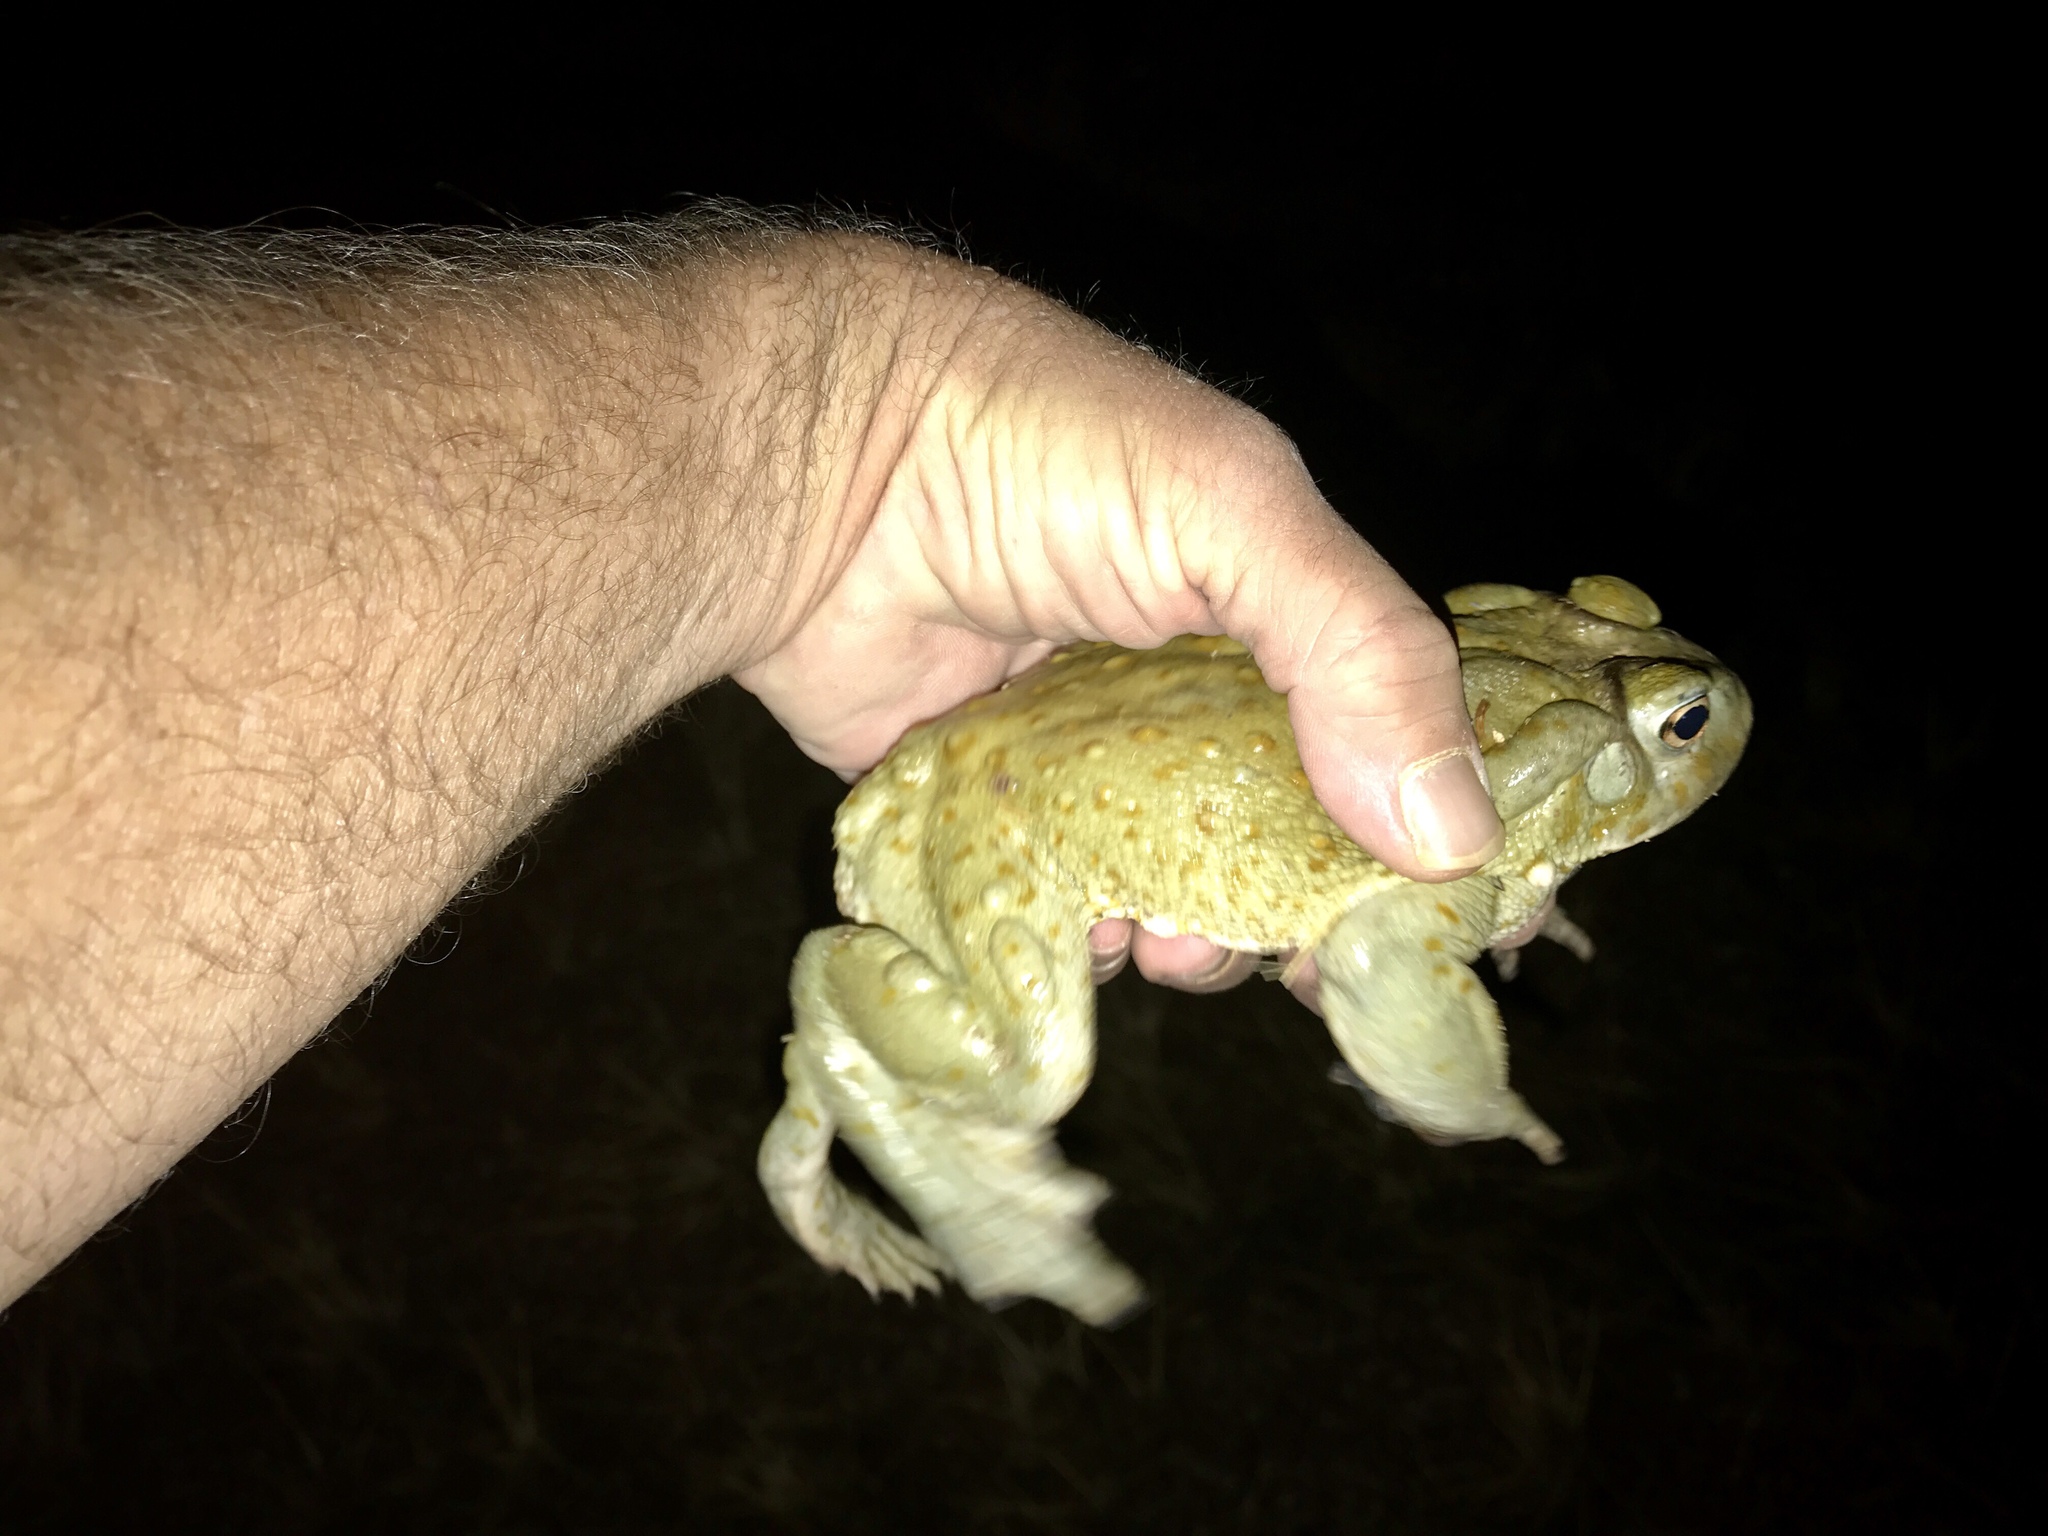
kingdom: Animalia
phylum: Chordata
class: Amphibia
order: Anura
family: Bufonidae
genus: Incilius
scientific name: Incilius alvarius
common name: Sonoran desert toad
